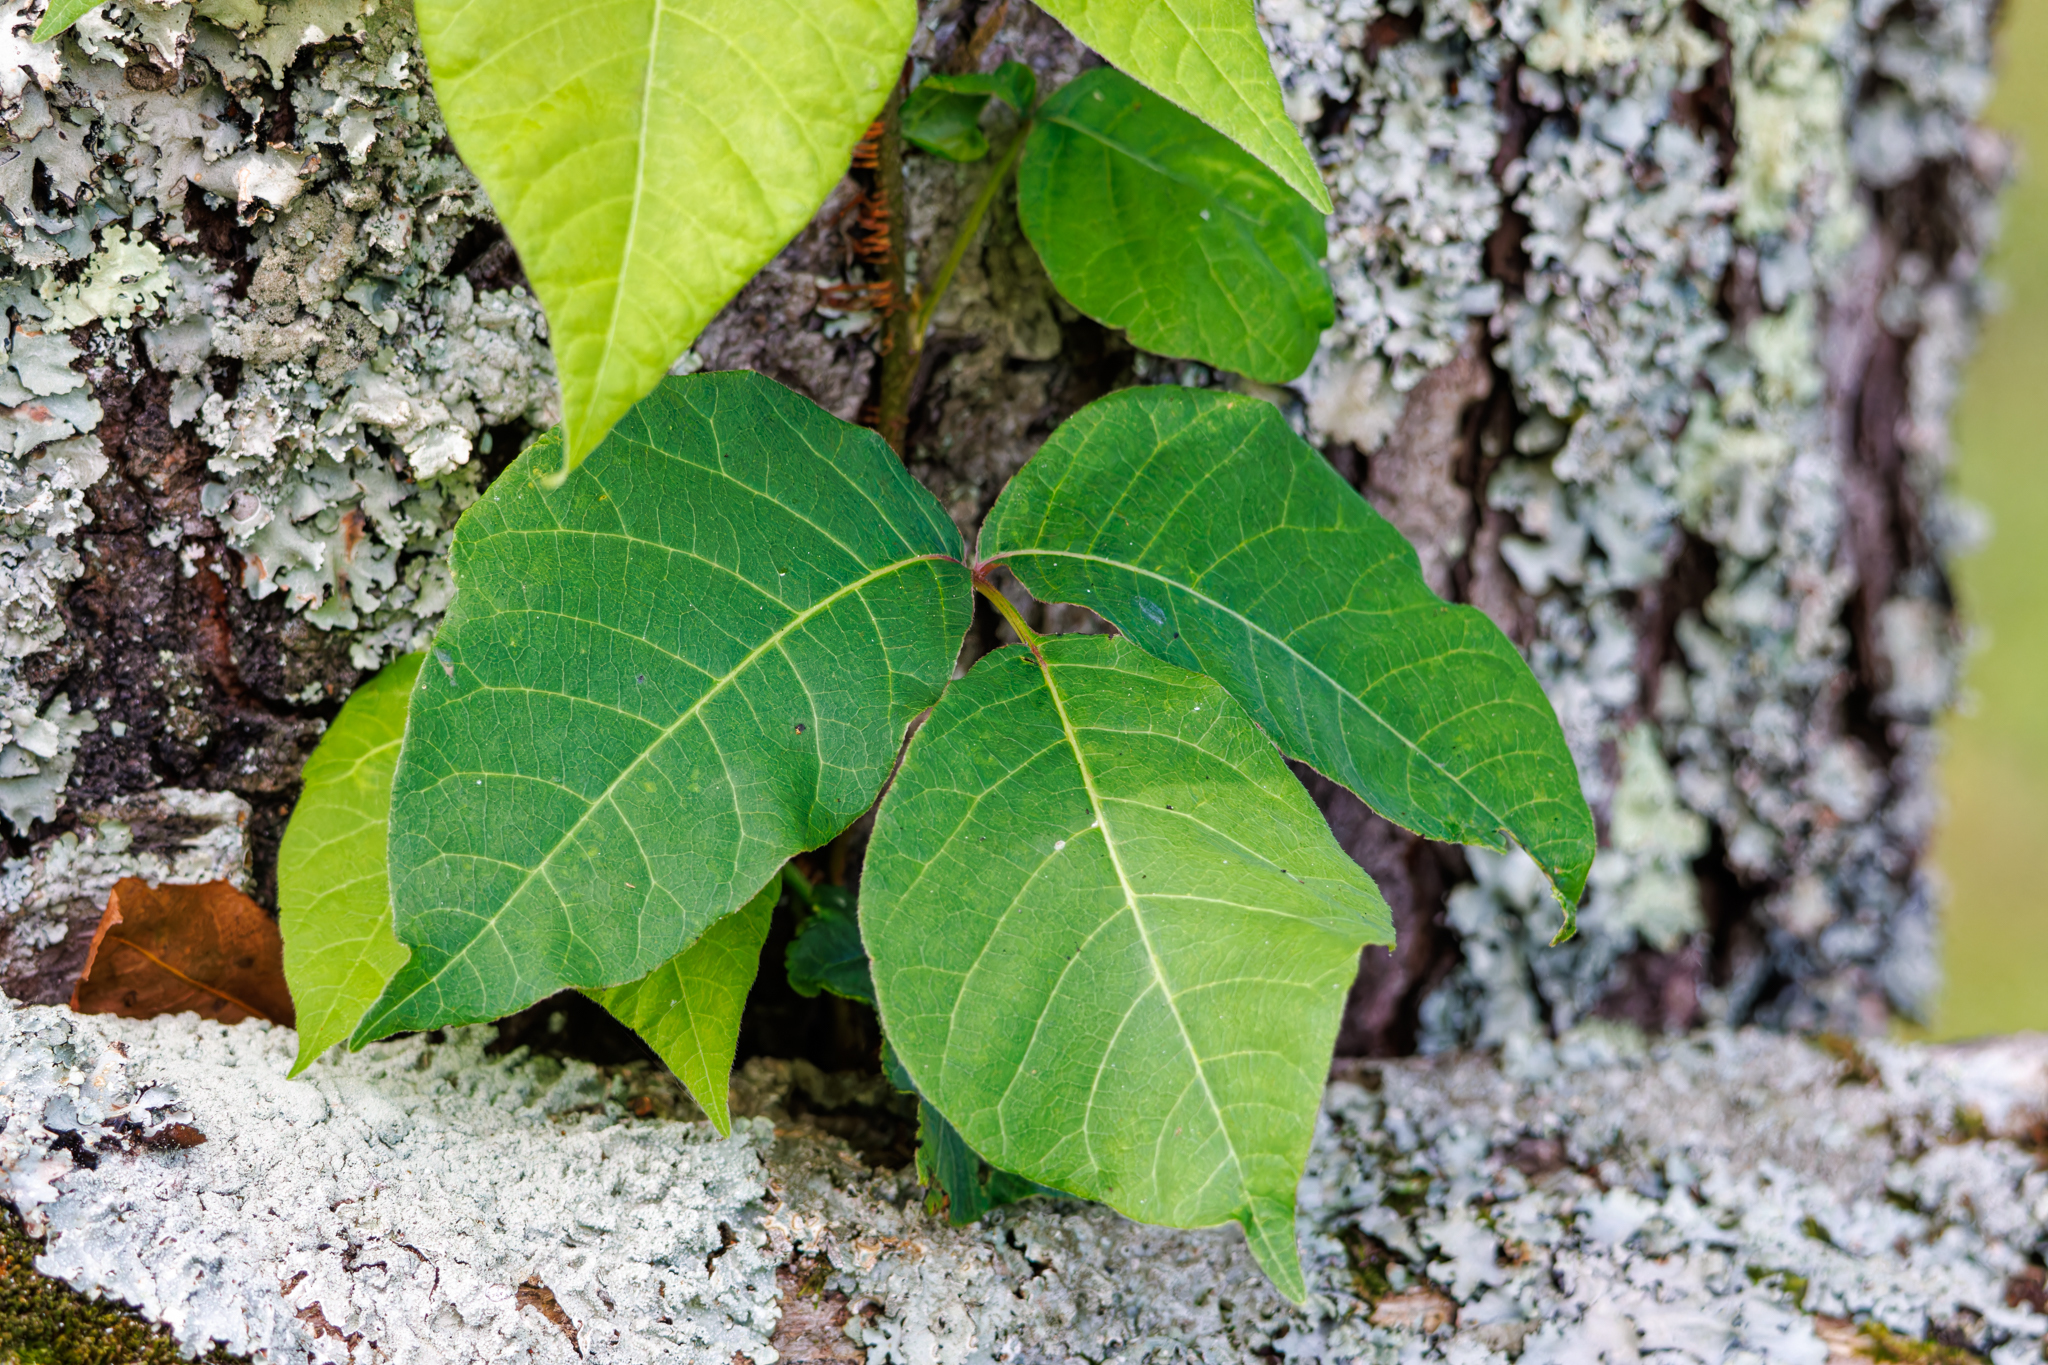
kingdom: Plantae
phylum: Tracheophyta
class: Magnoliopsida
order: Sapindales
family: Anacardiaceae
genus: Toxicodendron
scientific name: Toxicodendron radicans
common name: Poison ivy
